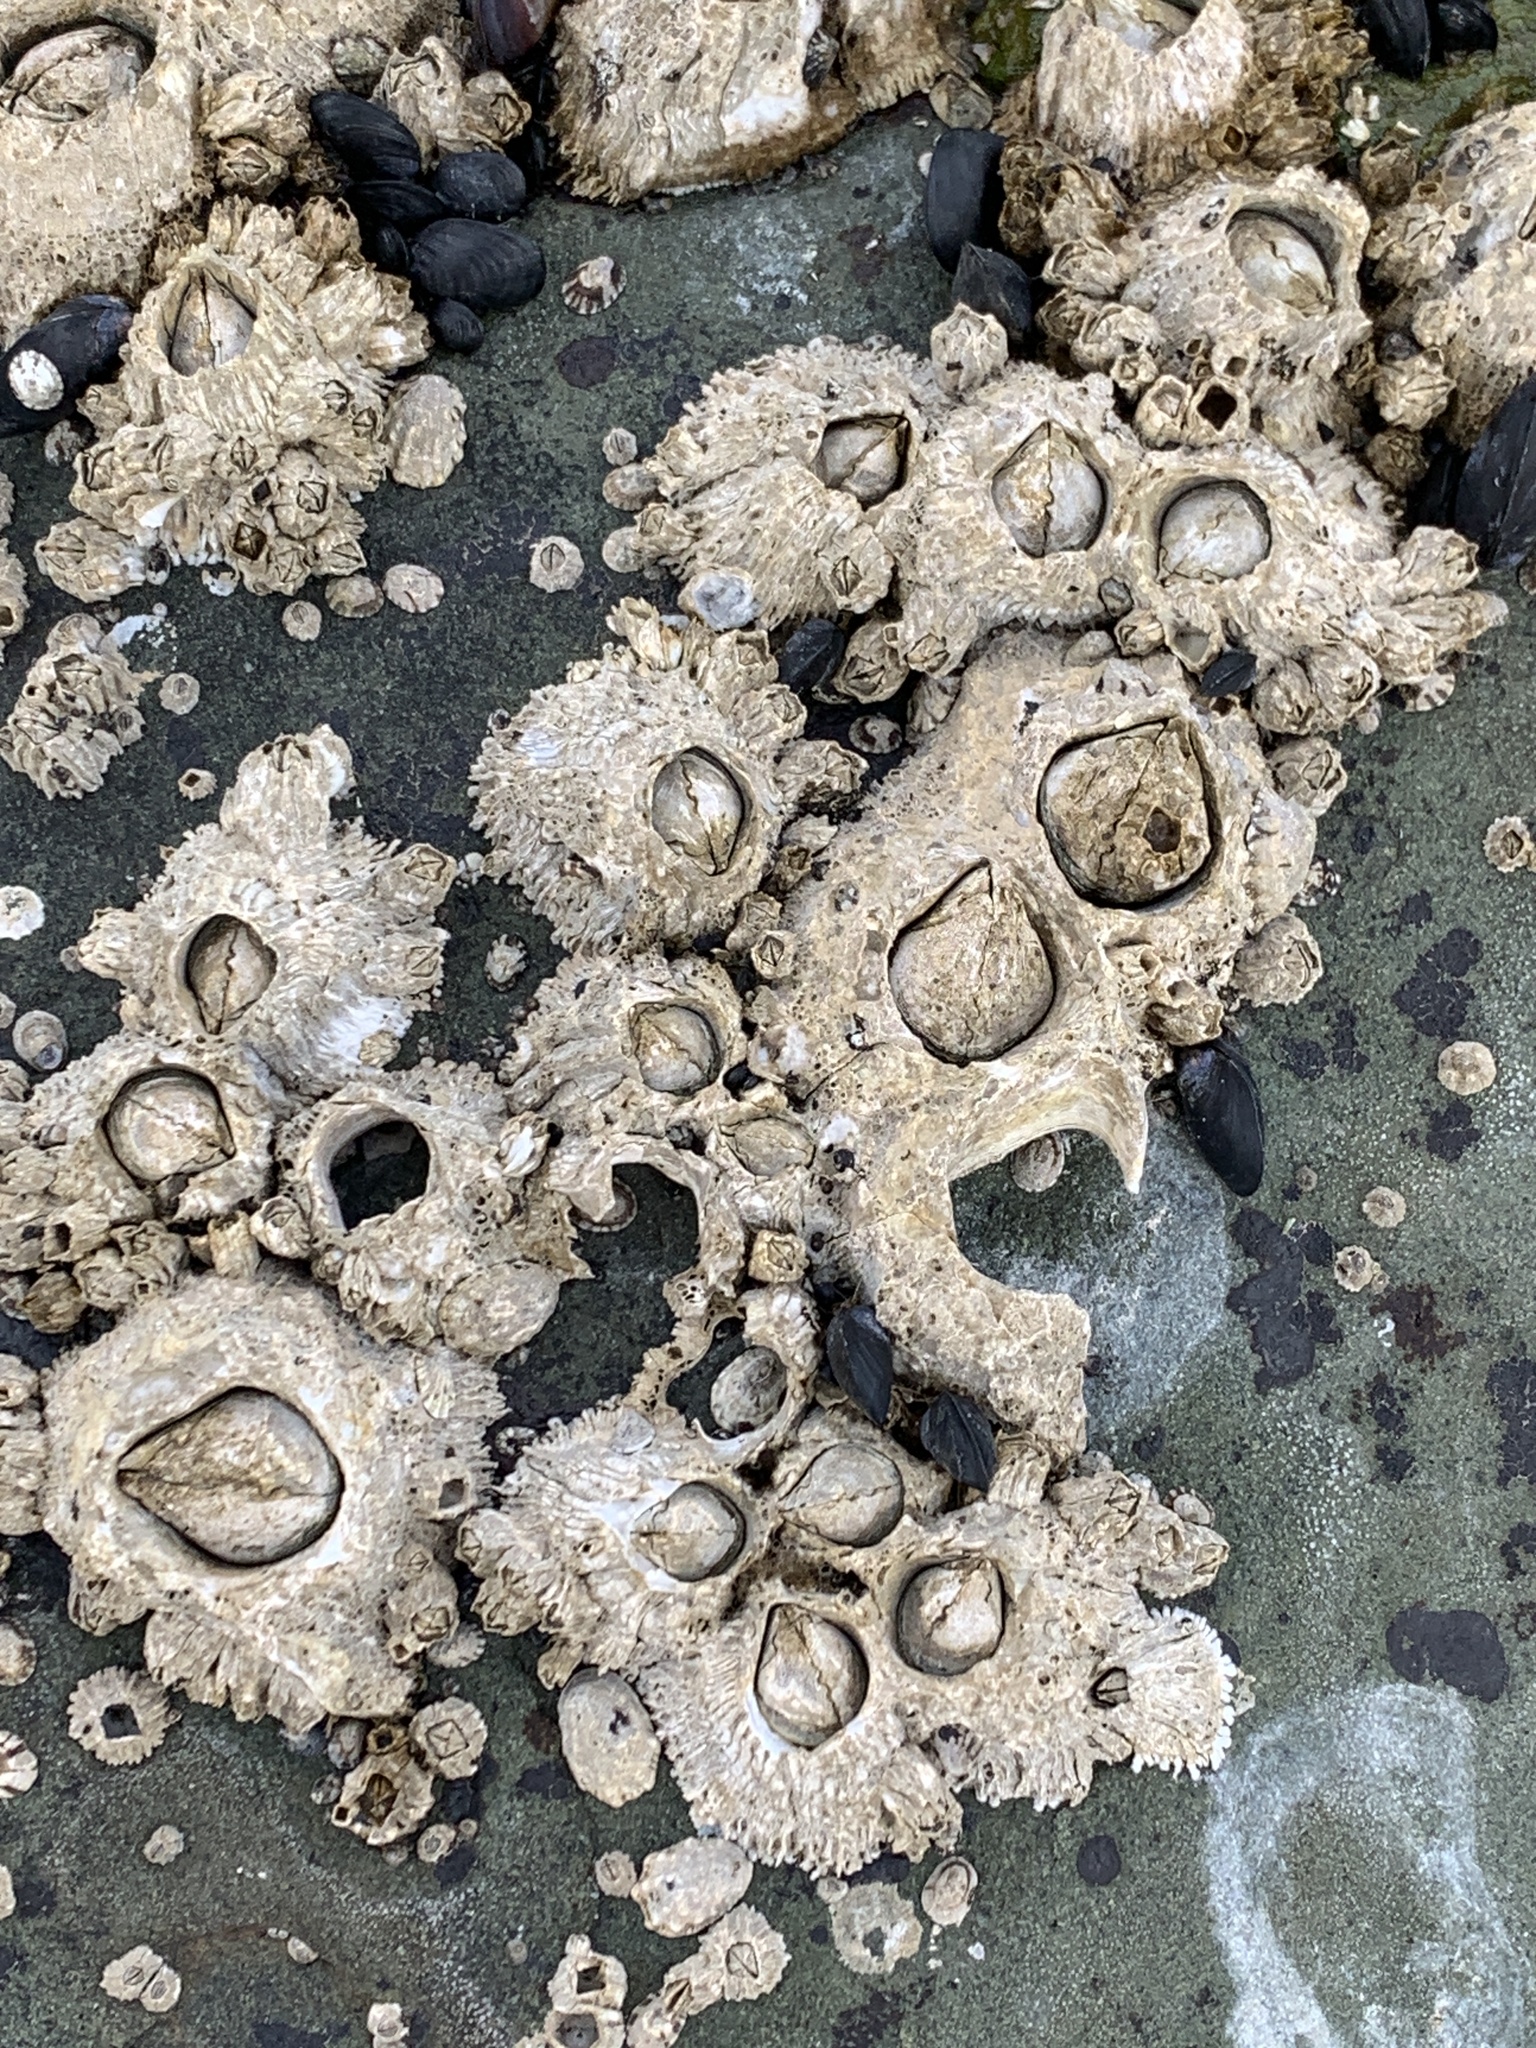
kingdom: Animalia
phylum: Arthropoda
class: Maxillopoda
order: Sessilia
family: Archaeobalanidae
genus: Semibalanus
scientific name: Semibalanus cariosus
